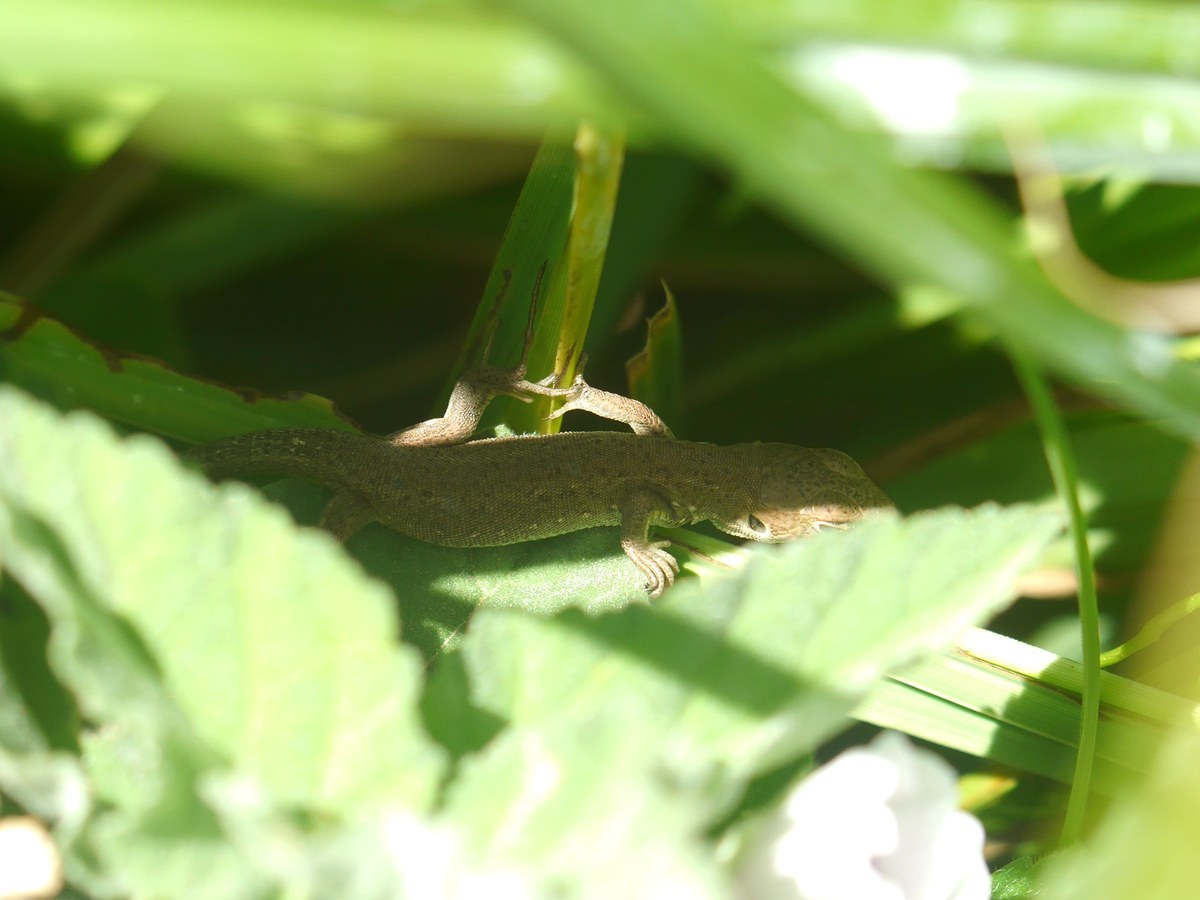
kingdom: Animalia
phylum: Chordata
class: Squamata
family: Lacertidae
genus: Lacerta
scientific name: Lacerta viridis
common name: European green lizard
